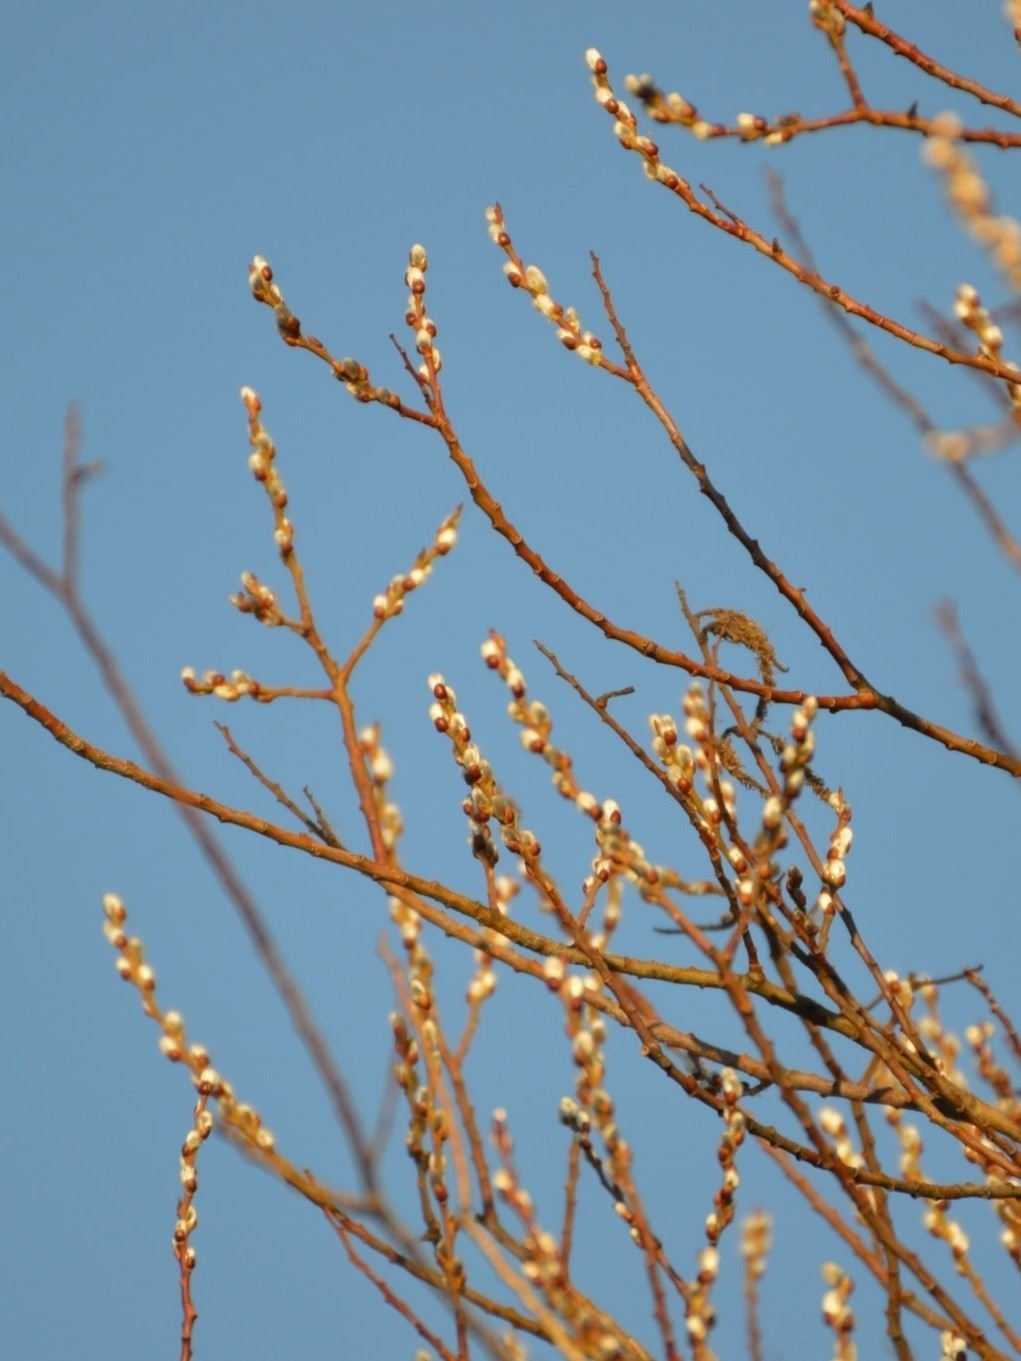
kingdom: Plantae
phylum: Tracheophyta
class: Magnoliopsida
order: Malpighiales
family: Salicaceae
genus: Salix
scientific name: Salix
